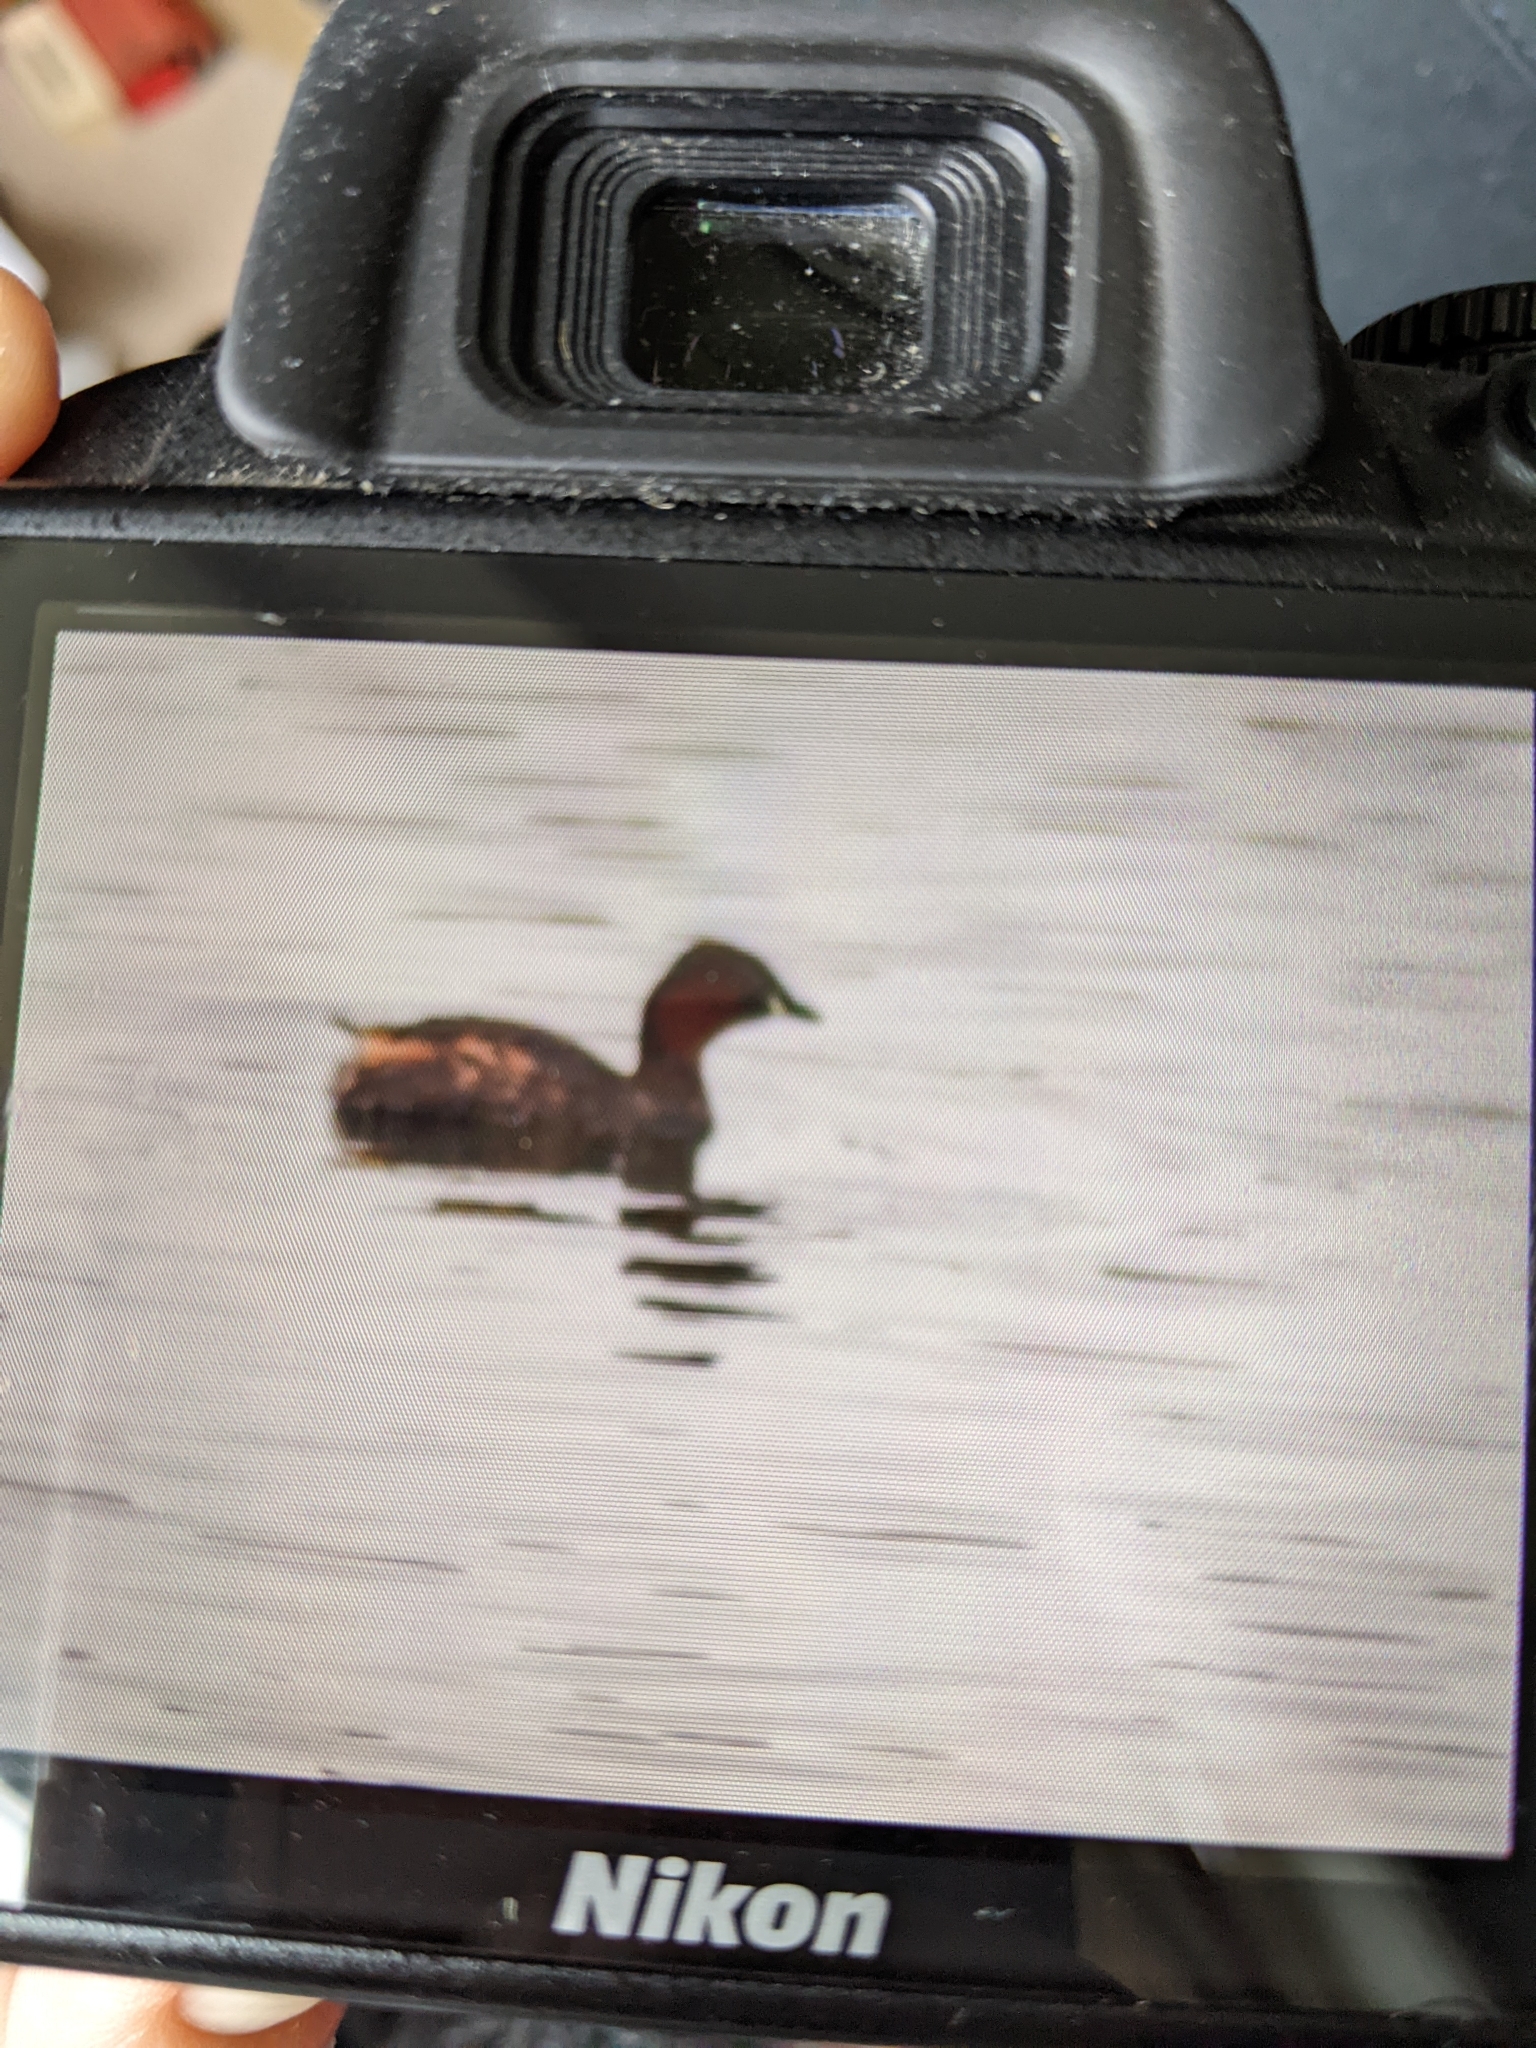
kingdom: Animalia
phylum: Chordata
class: Aves
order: Podicipediformes
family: Podicipedidae
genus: Tachybaptus
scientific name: Tachybaptus ruficollis
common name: Little grebe
